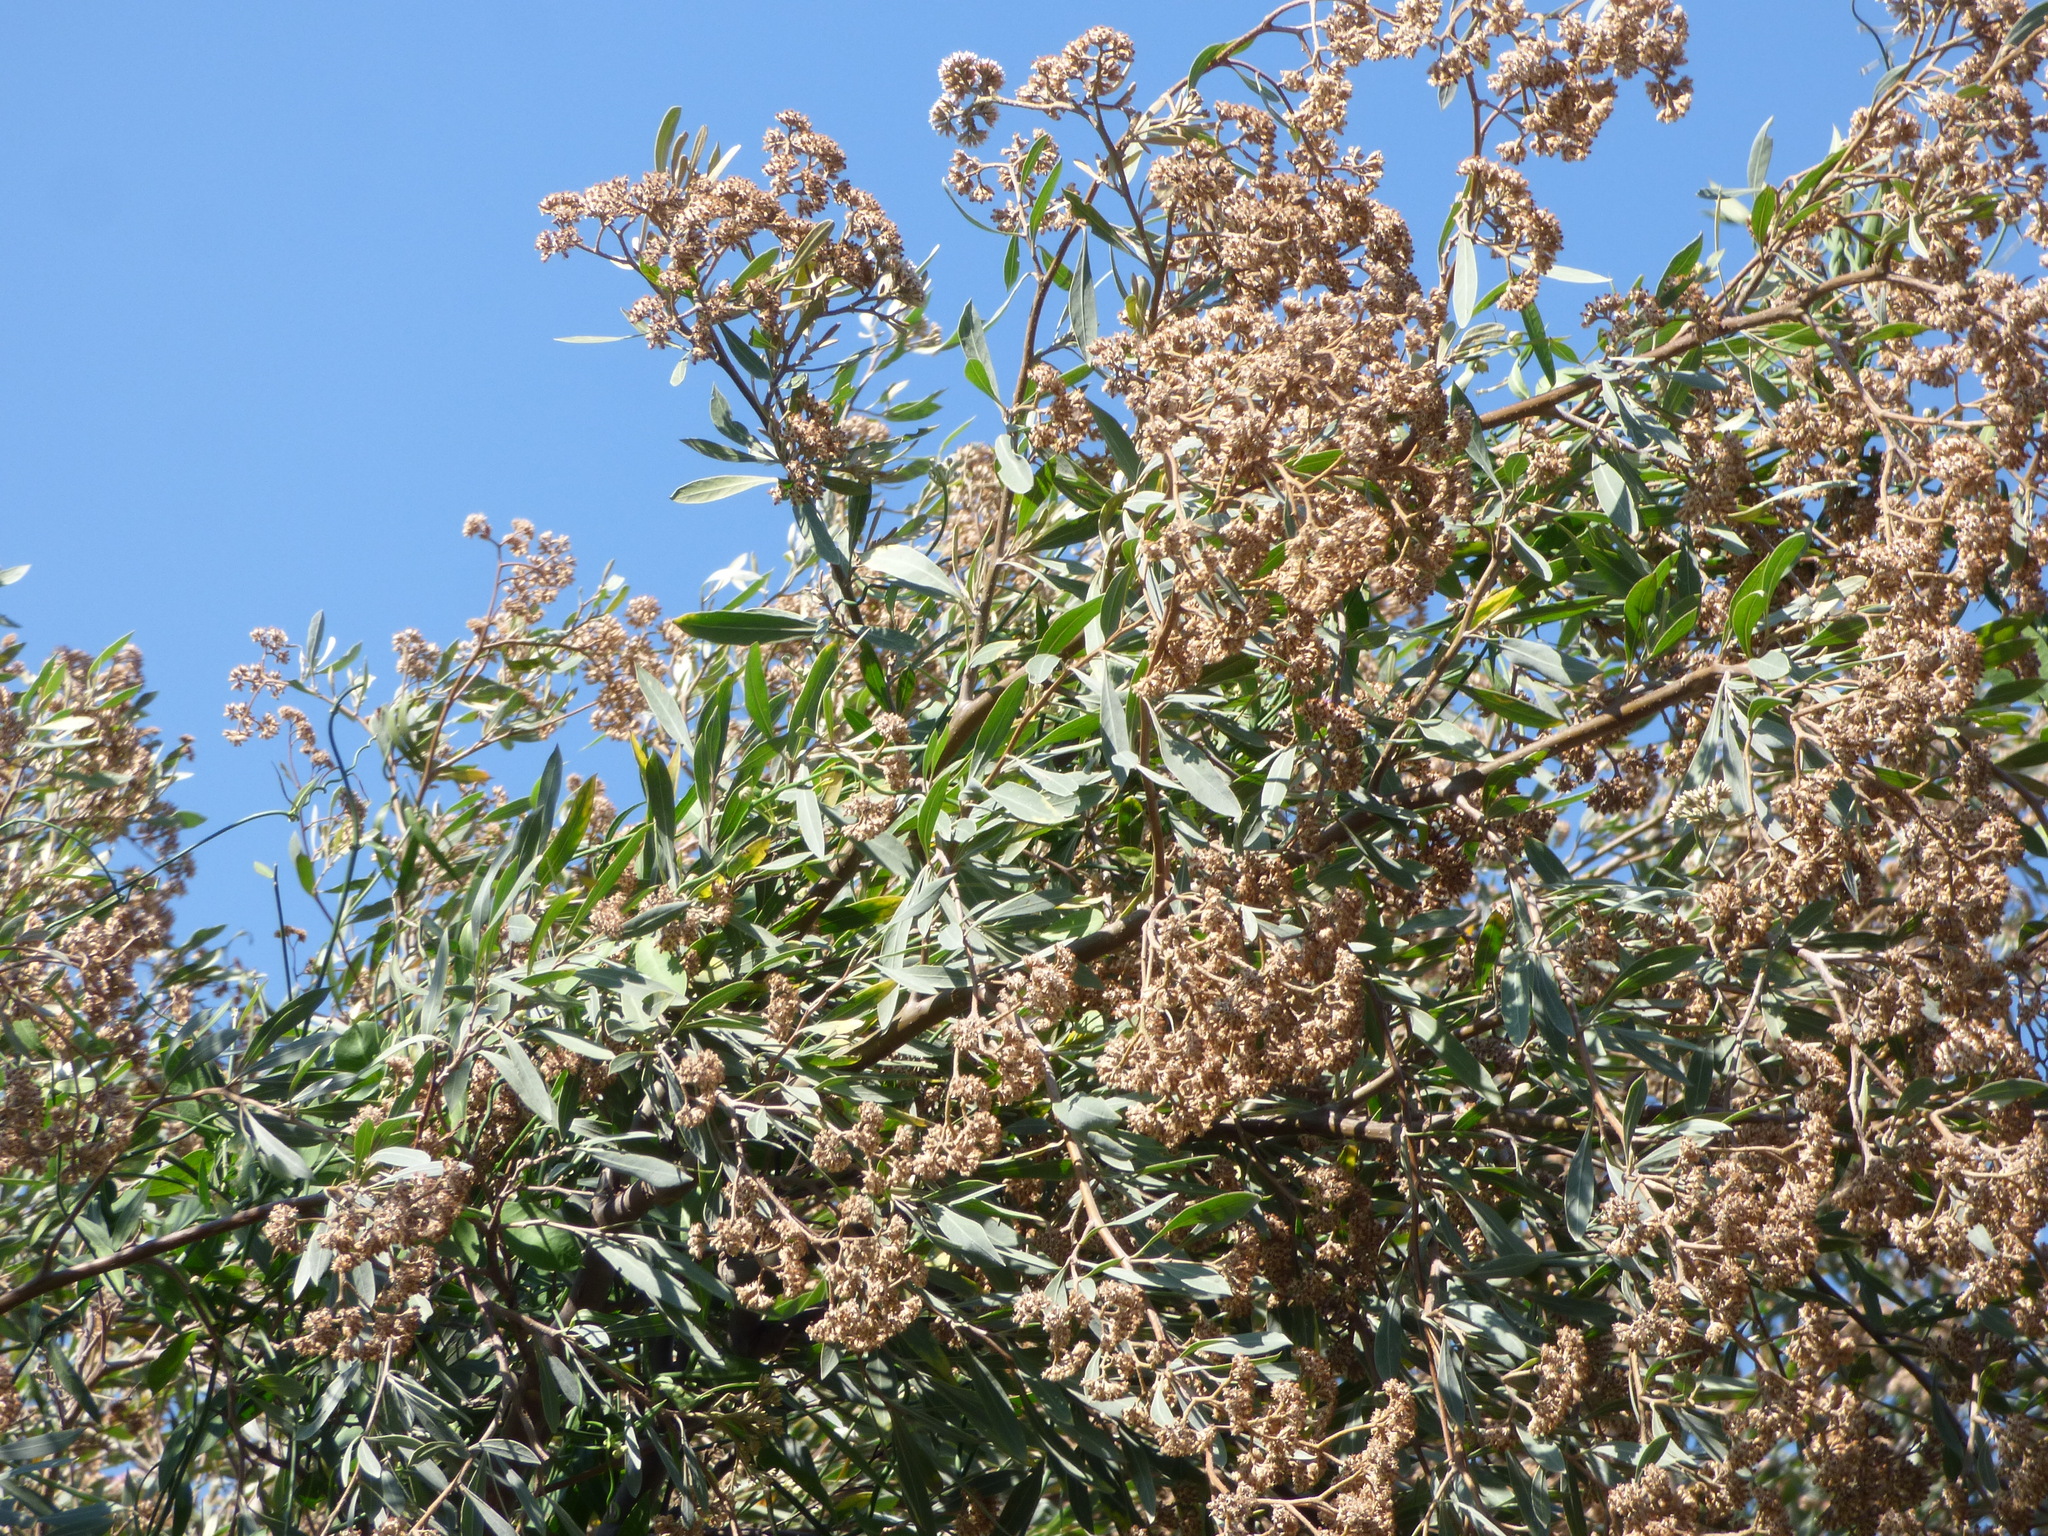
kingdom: Plantae
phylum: Tracheophyta
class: Magnoliopsida
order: Asterales
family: Asteraceae
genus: Tessaria
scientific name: Tessaria integrifolia
